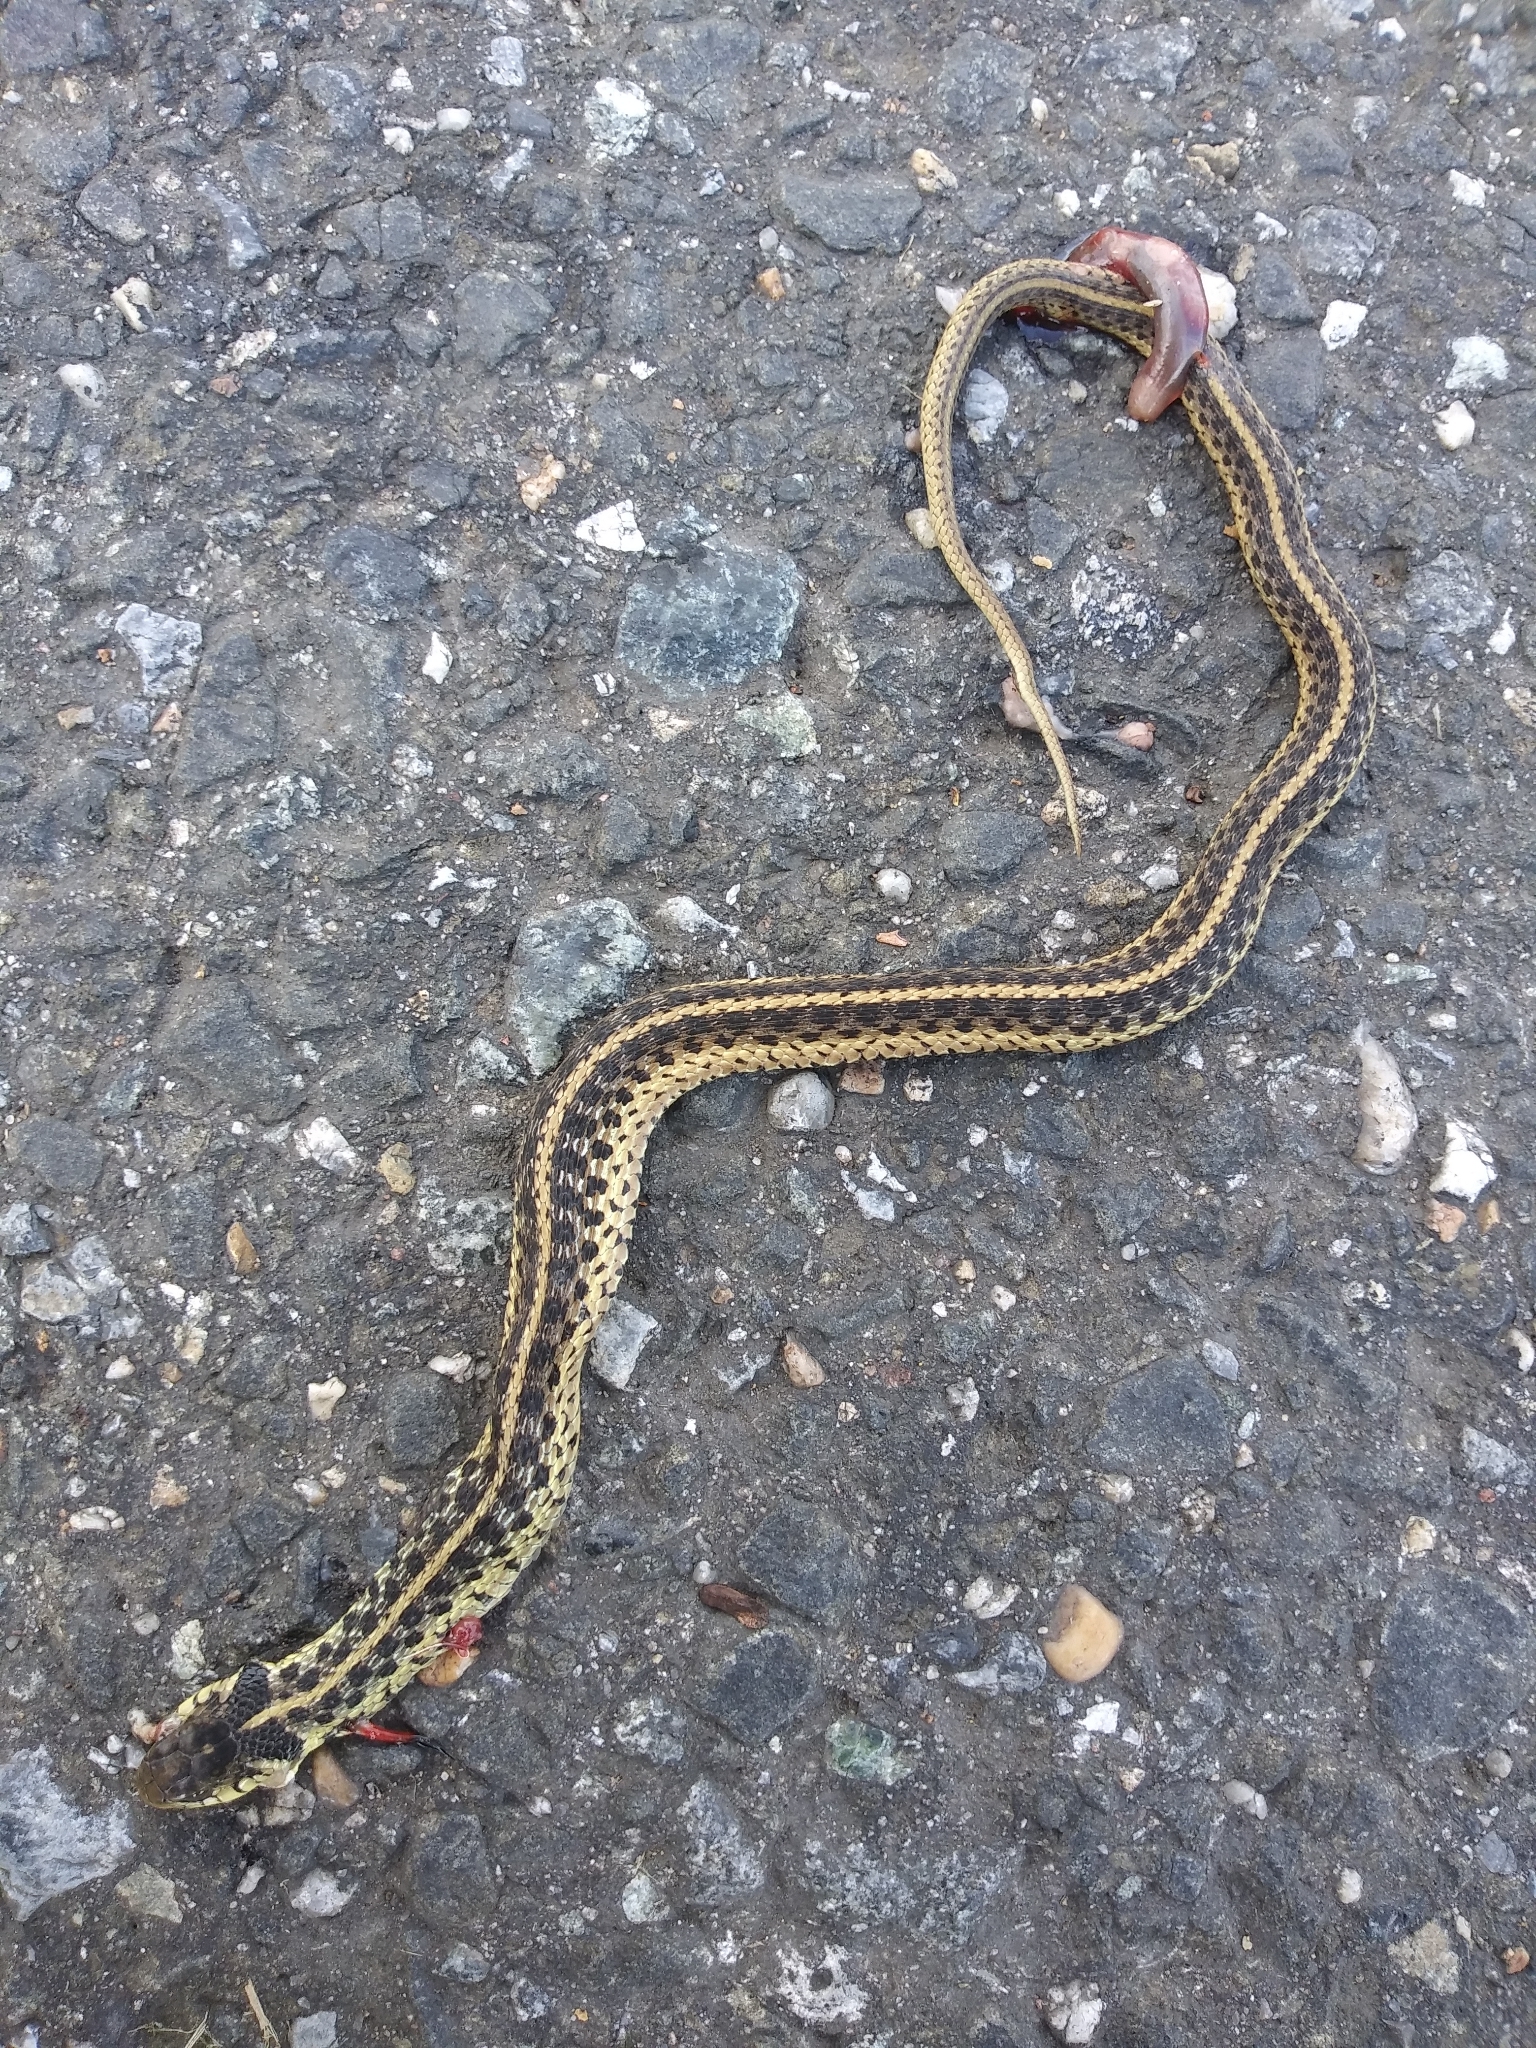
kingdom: Animalia
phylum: Chordata
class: Squamata
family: Colubridae
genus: Thamnophis
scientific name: Thamnophis sirtalis
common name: Common garter snake
